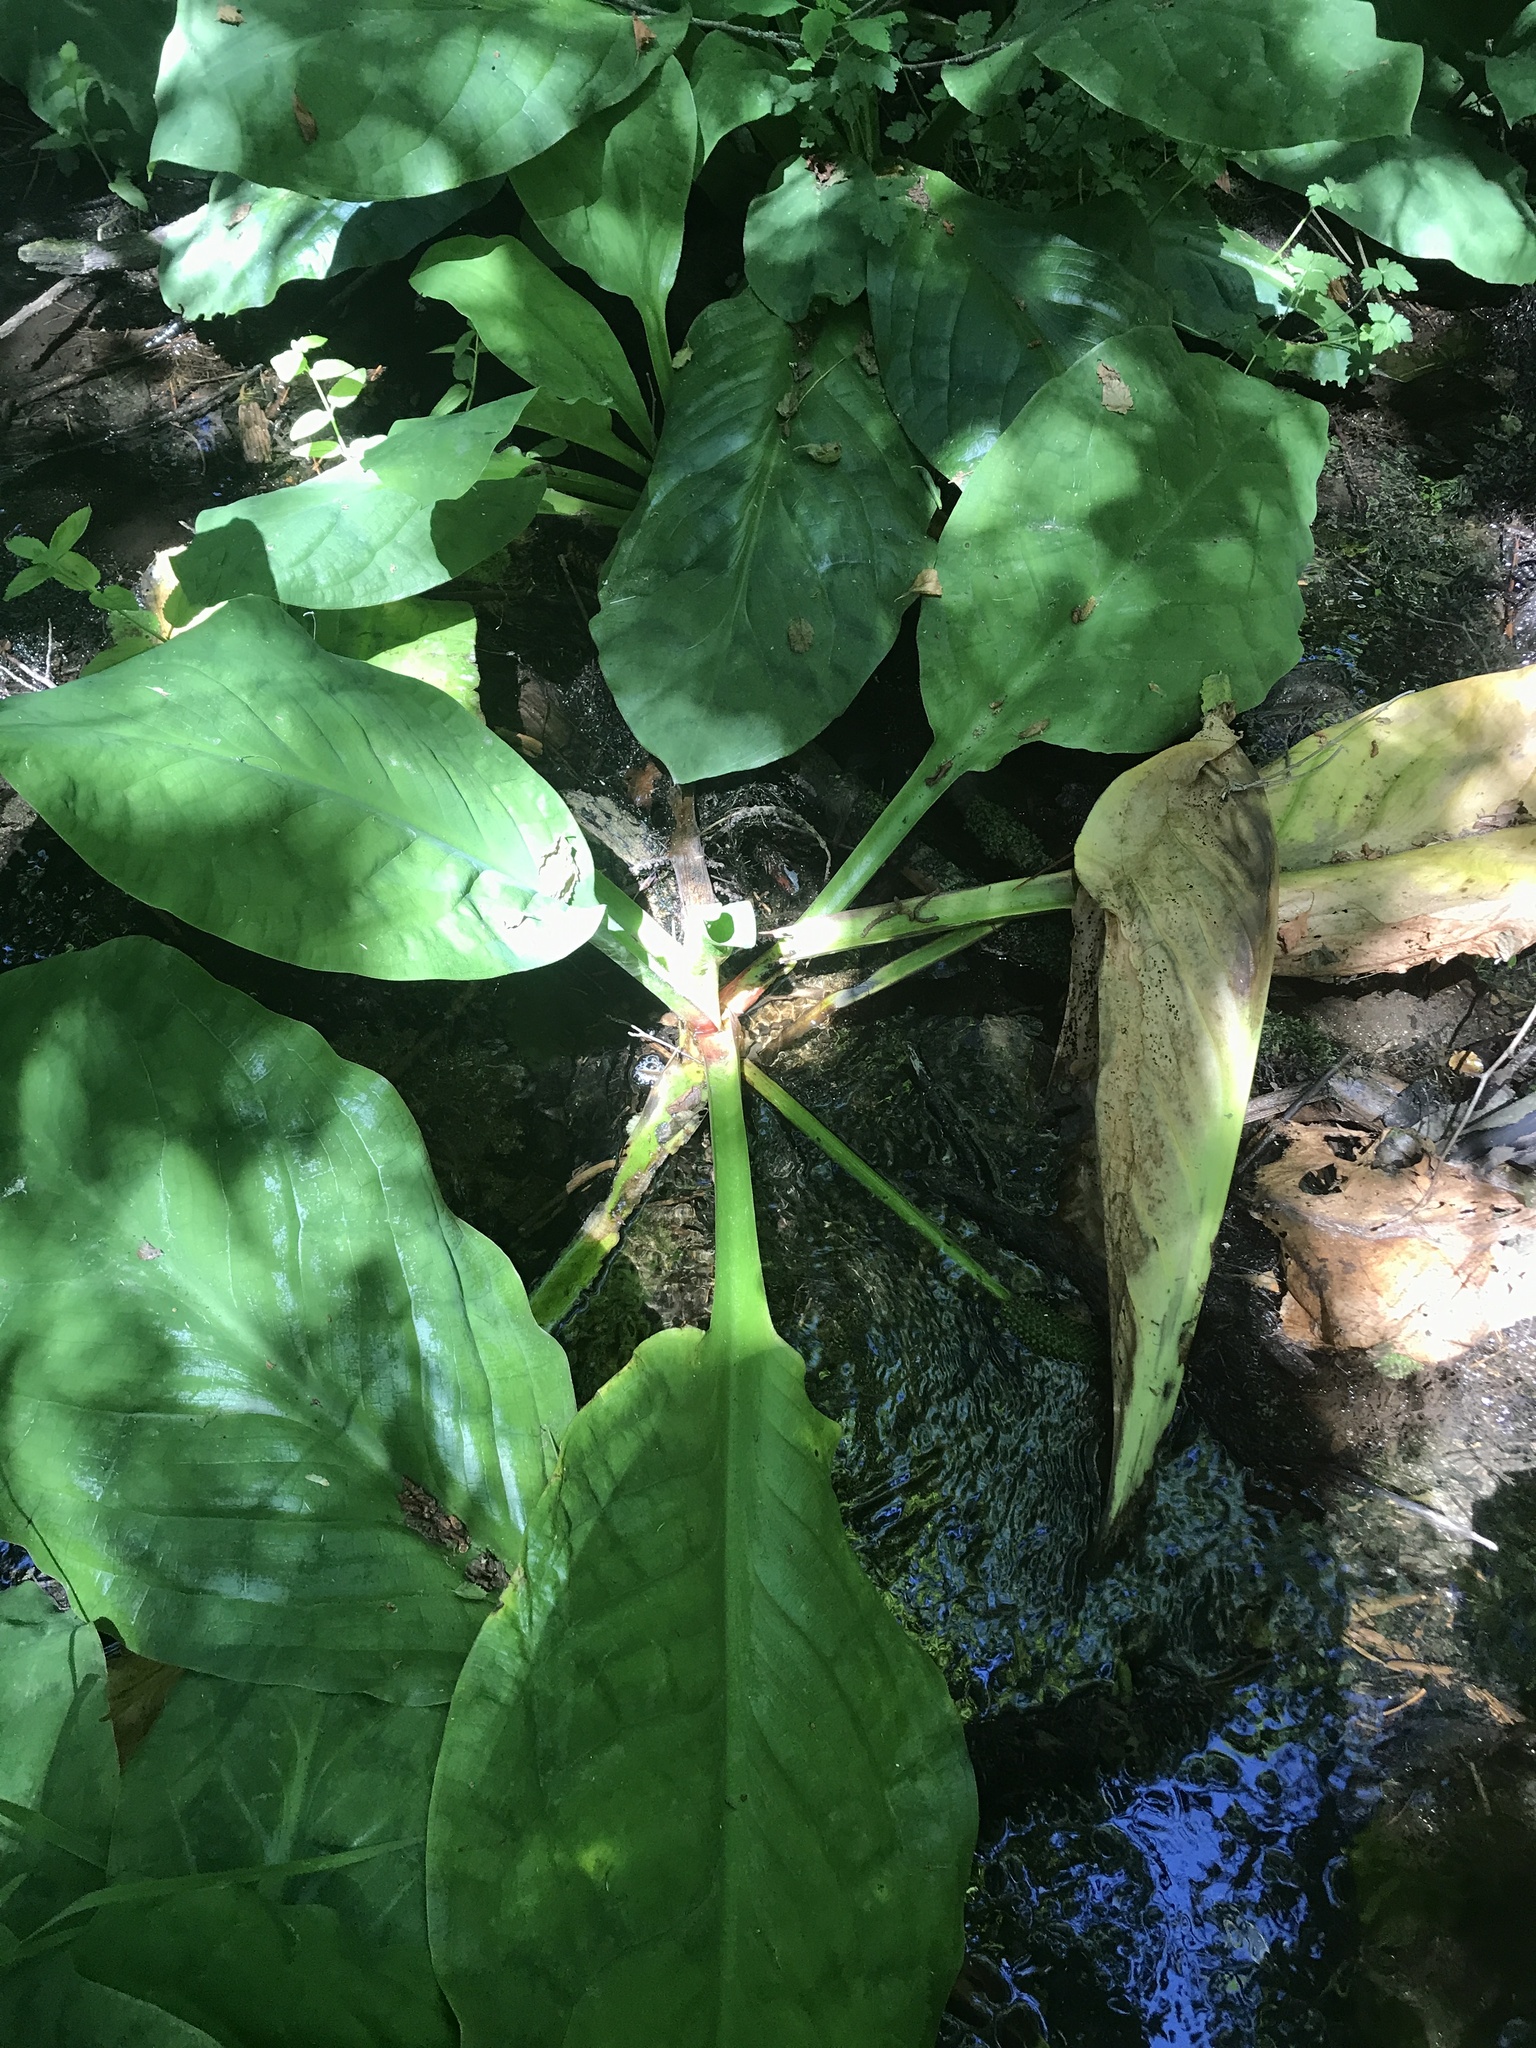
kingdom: Plantae
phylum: Tracheophyta
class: Liliopsida
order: Alismatales
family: Araceae
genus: Lysichiton
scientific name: Lysichiton americanus
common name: American skunk cabbage
